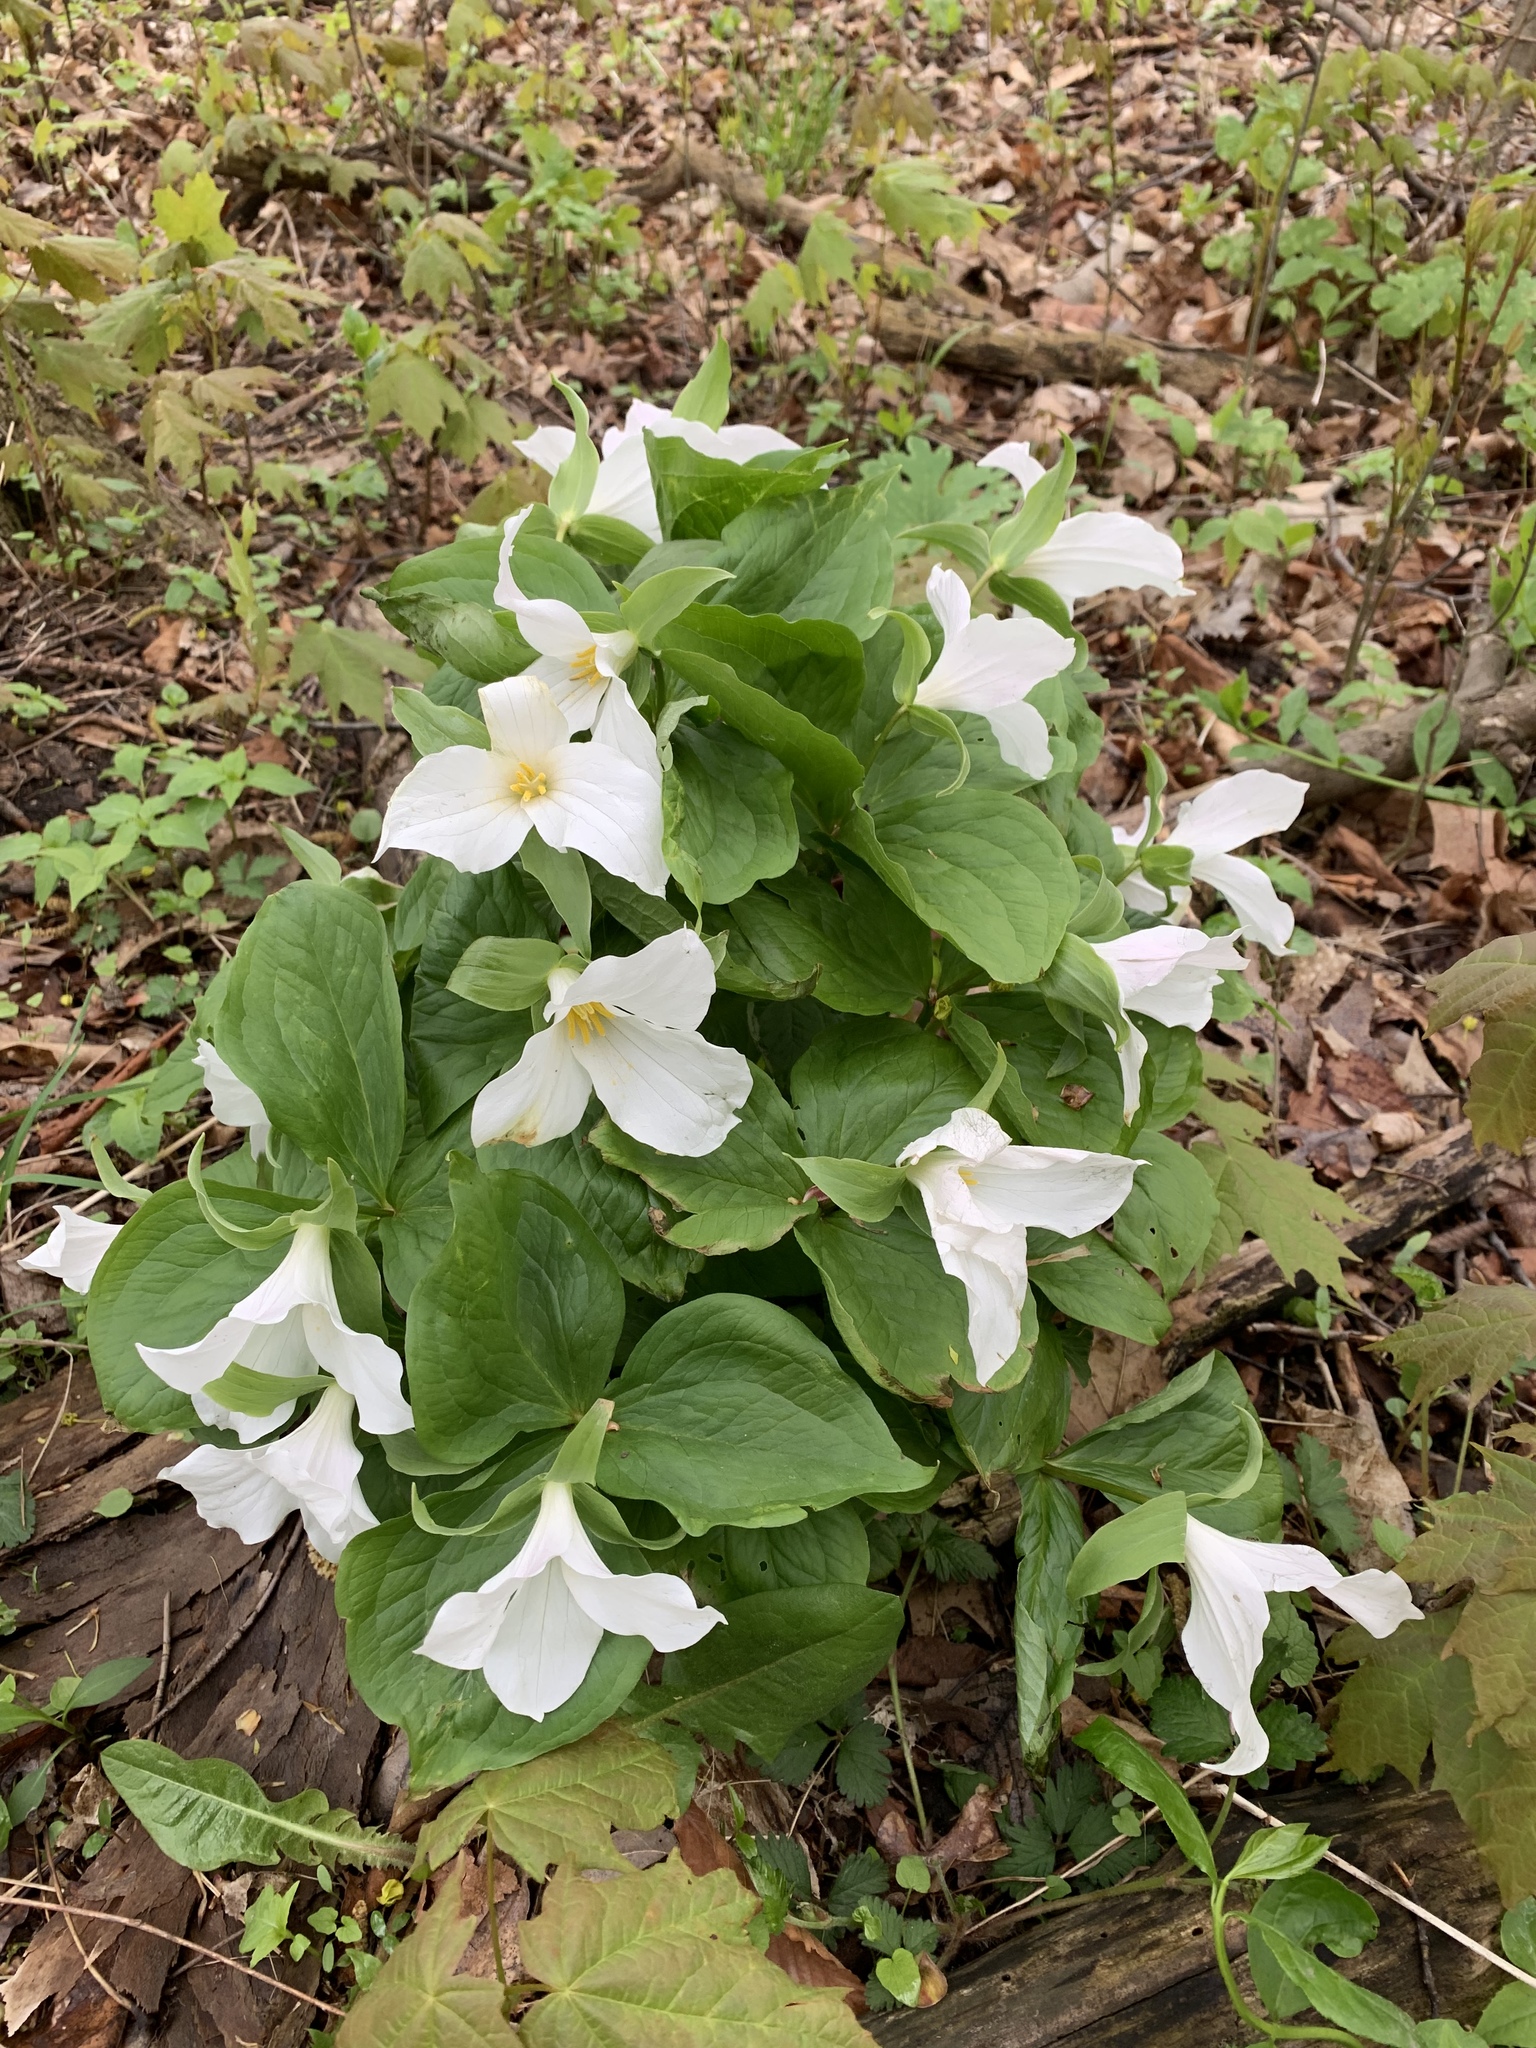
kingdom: Plantae
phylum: Tracheophyta
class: Liliopsida
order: Liliales
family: Melanthiaceae
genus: Trillium
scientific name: Trillium grandiflorum
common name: Great white trillium
